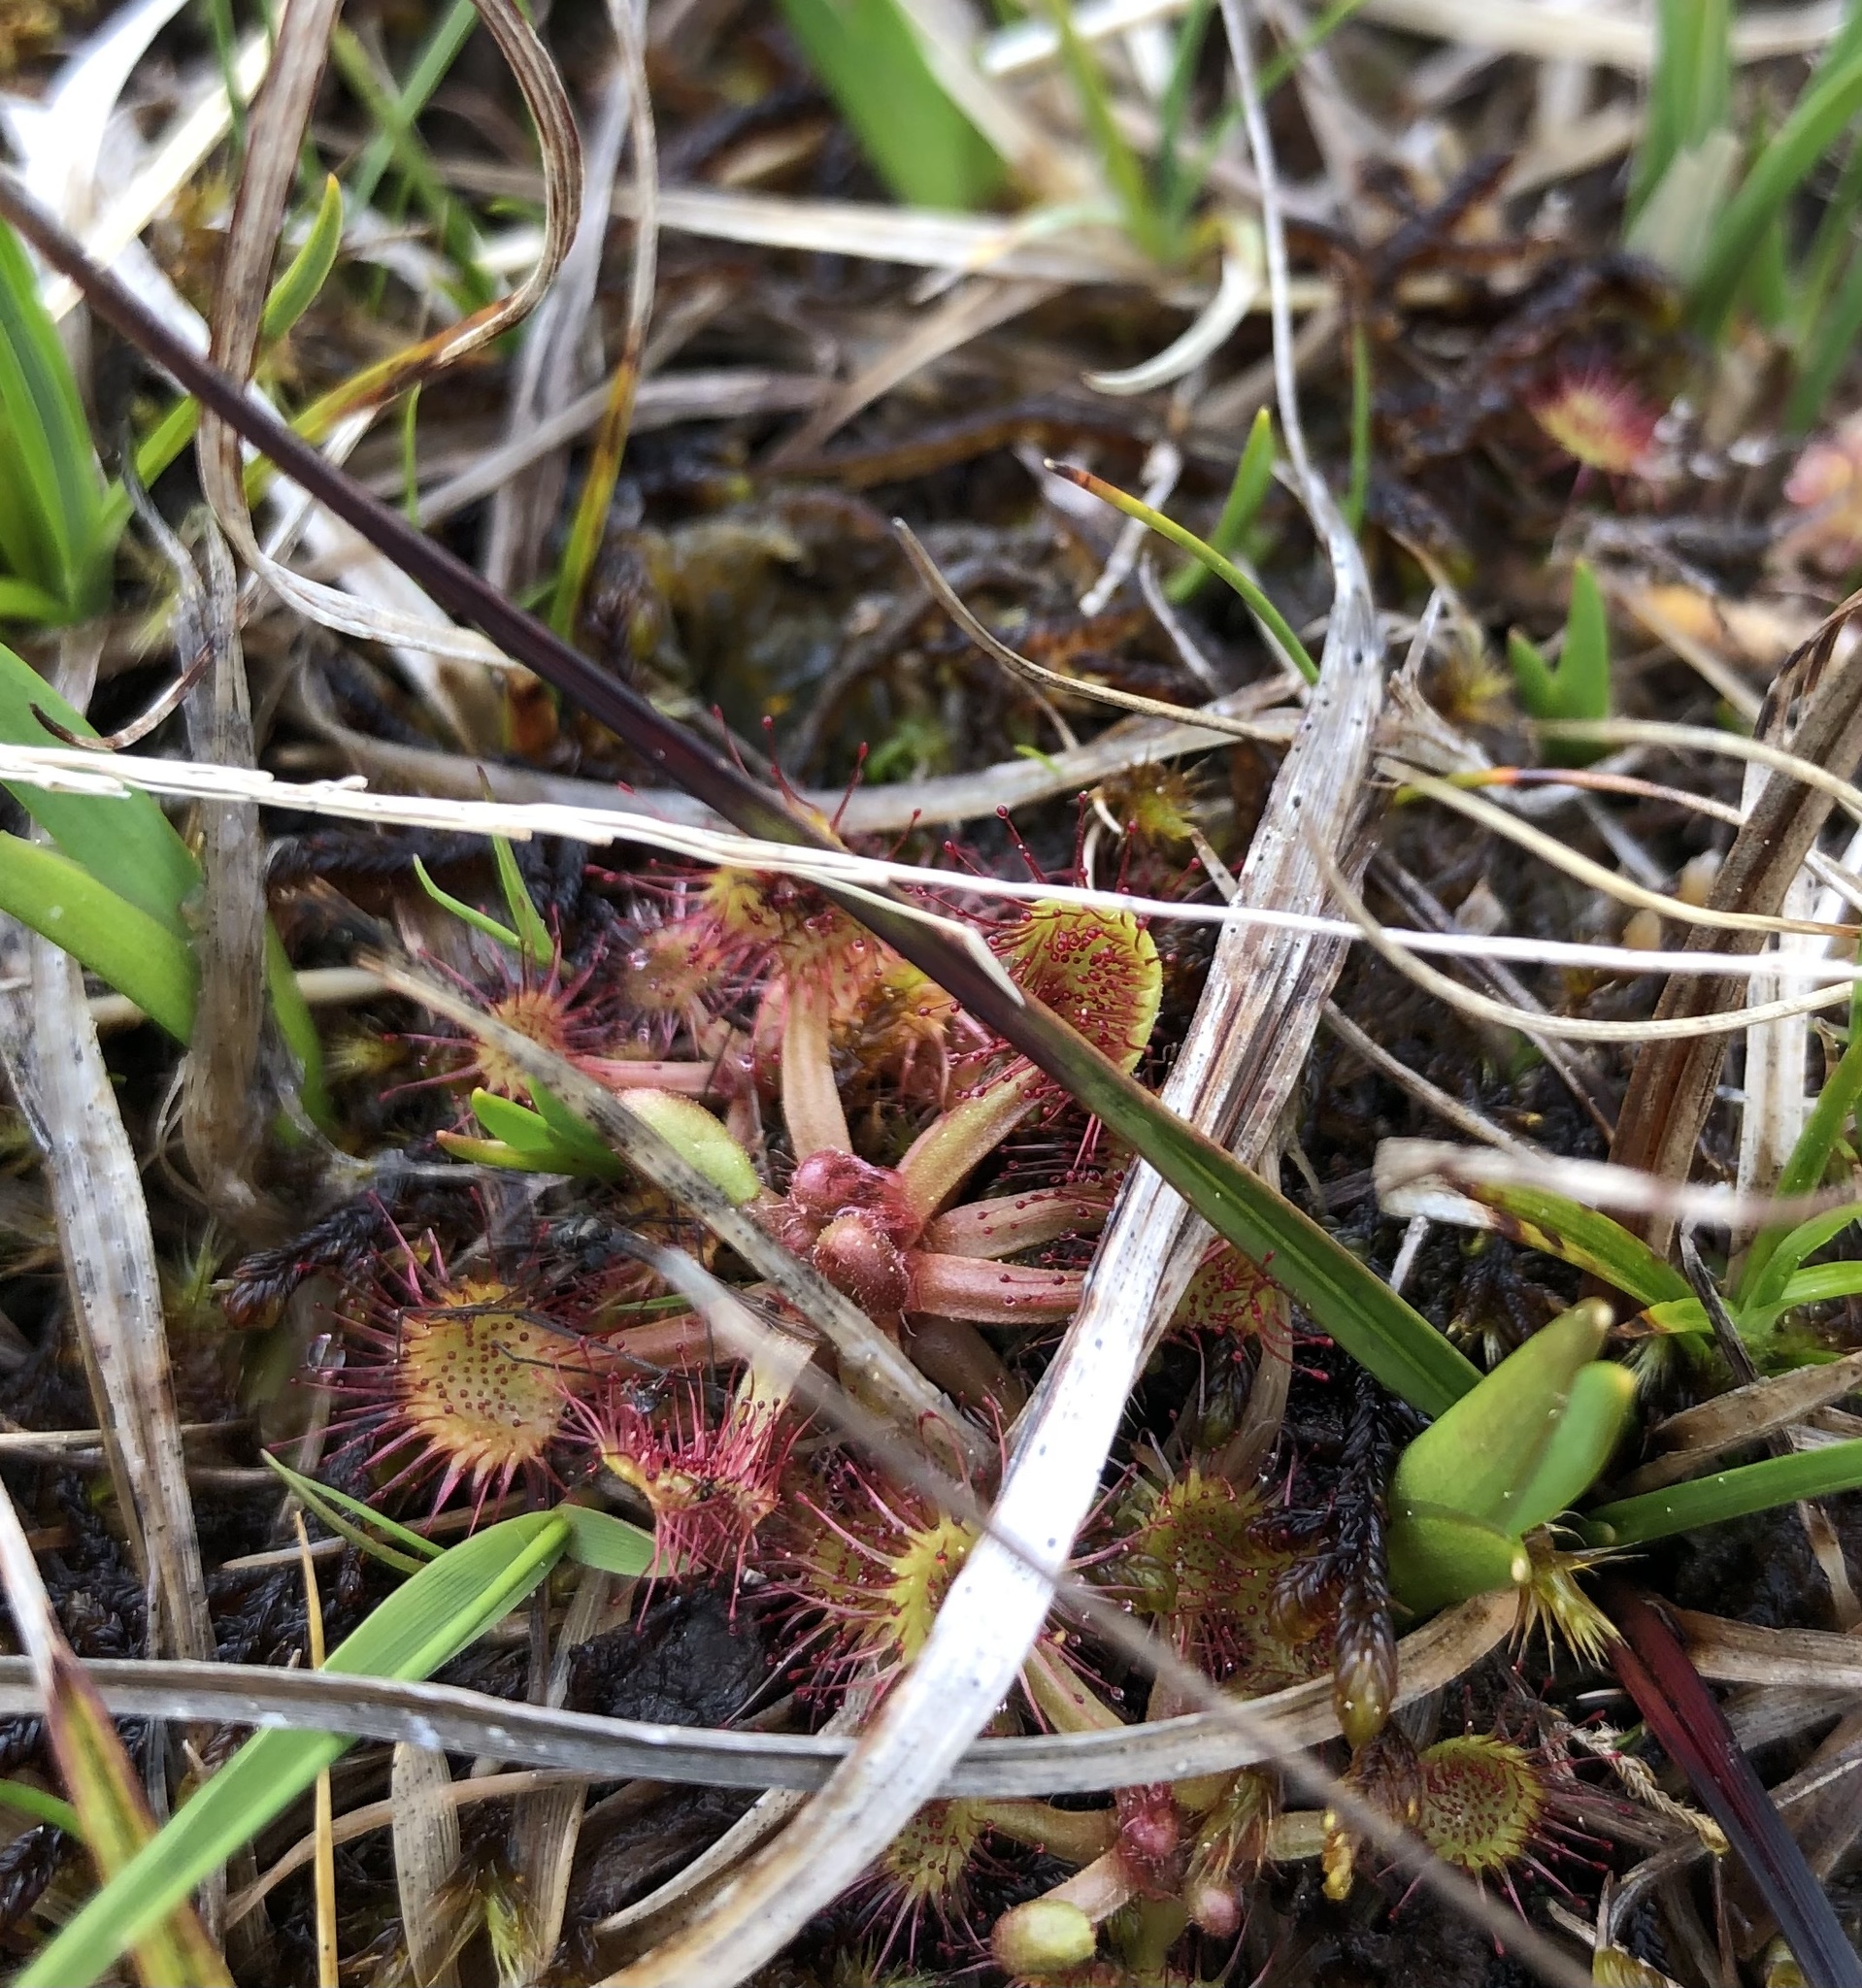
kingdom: Plantae
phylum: Tracheophyta
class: Magnoliopsida
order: Caryophyllales
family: Droseraceae
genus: Drosera
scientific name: Drosera rotundifolia
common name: Round-leaved sundew
